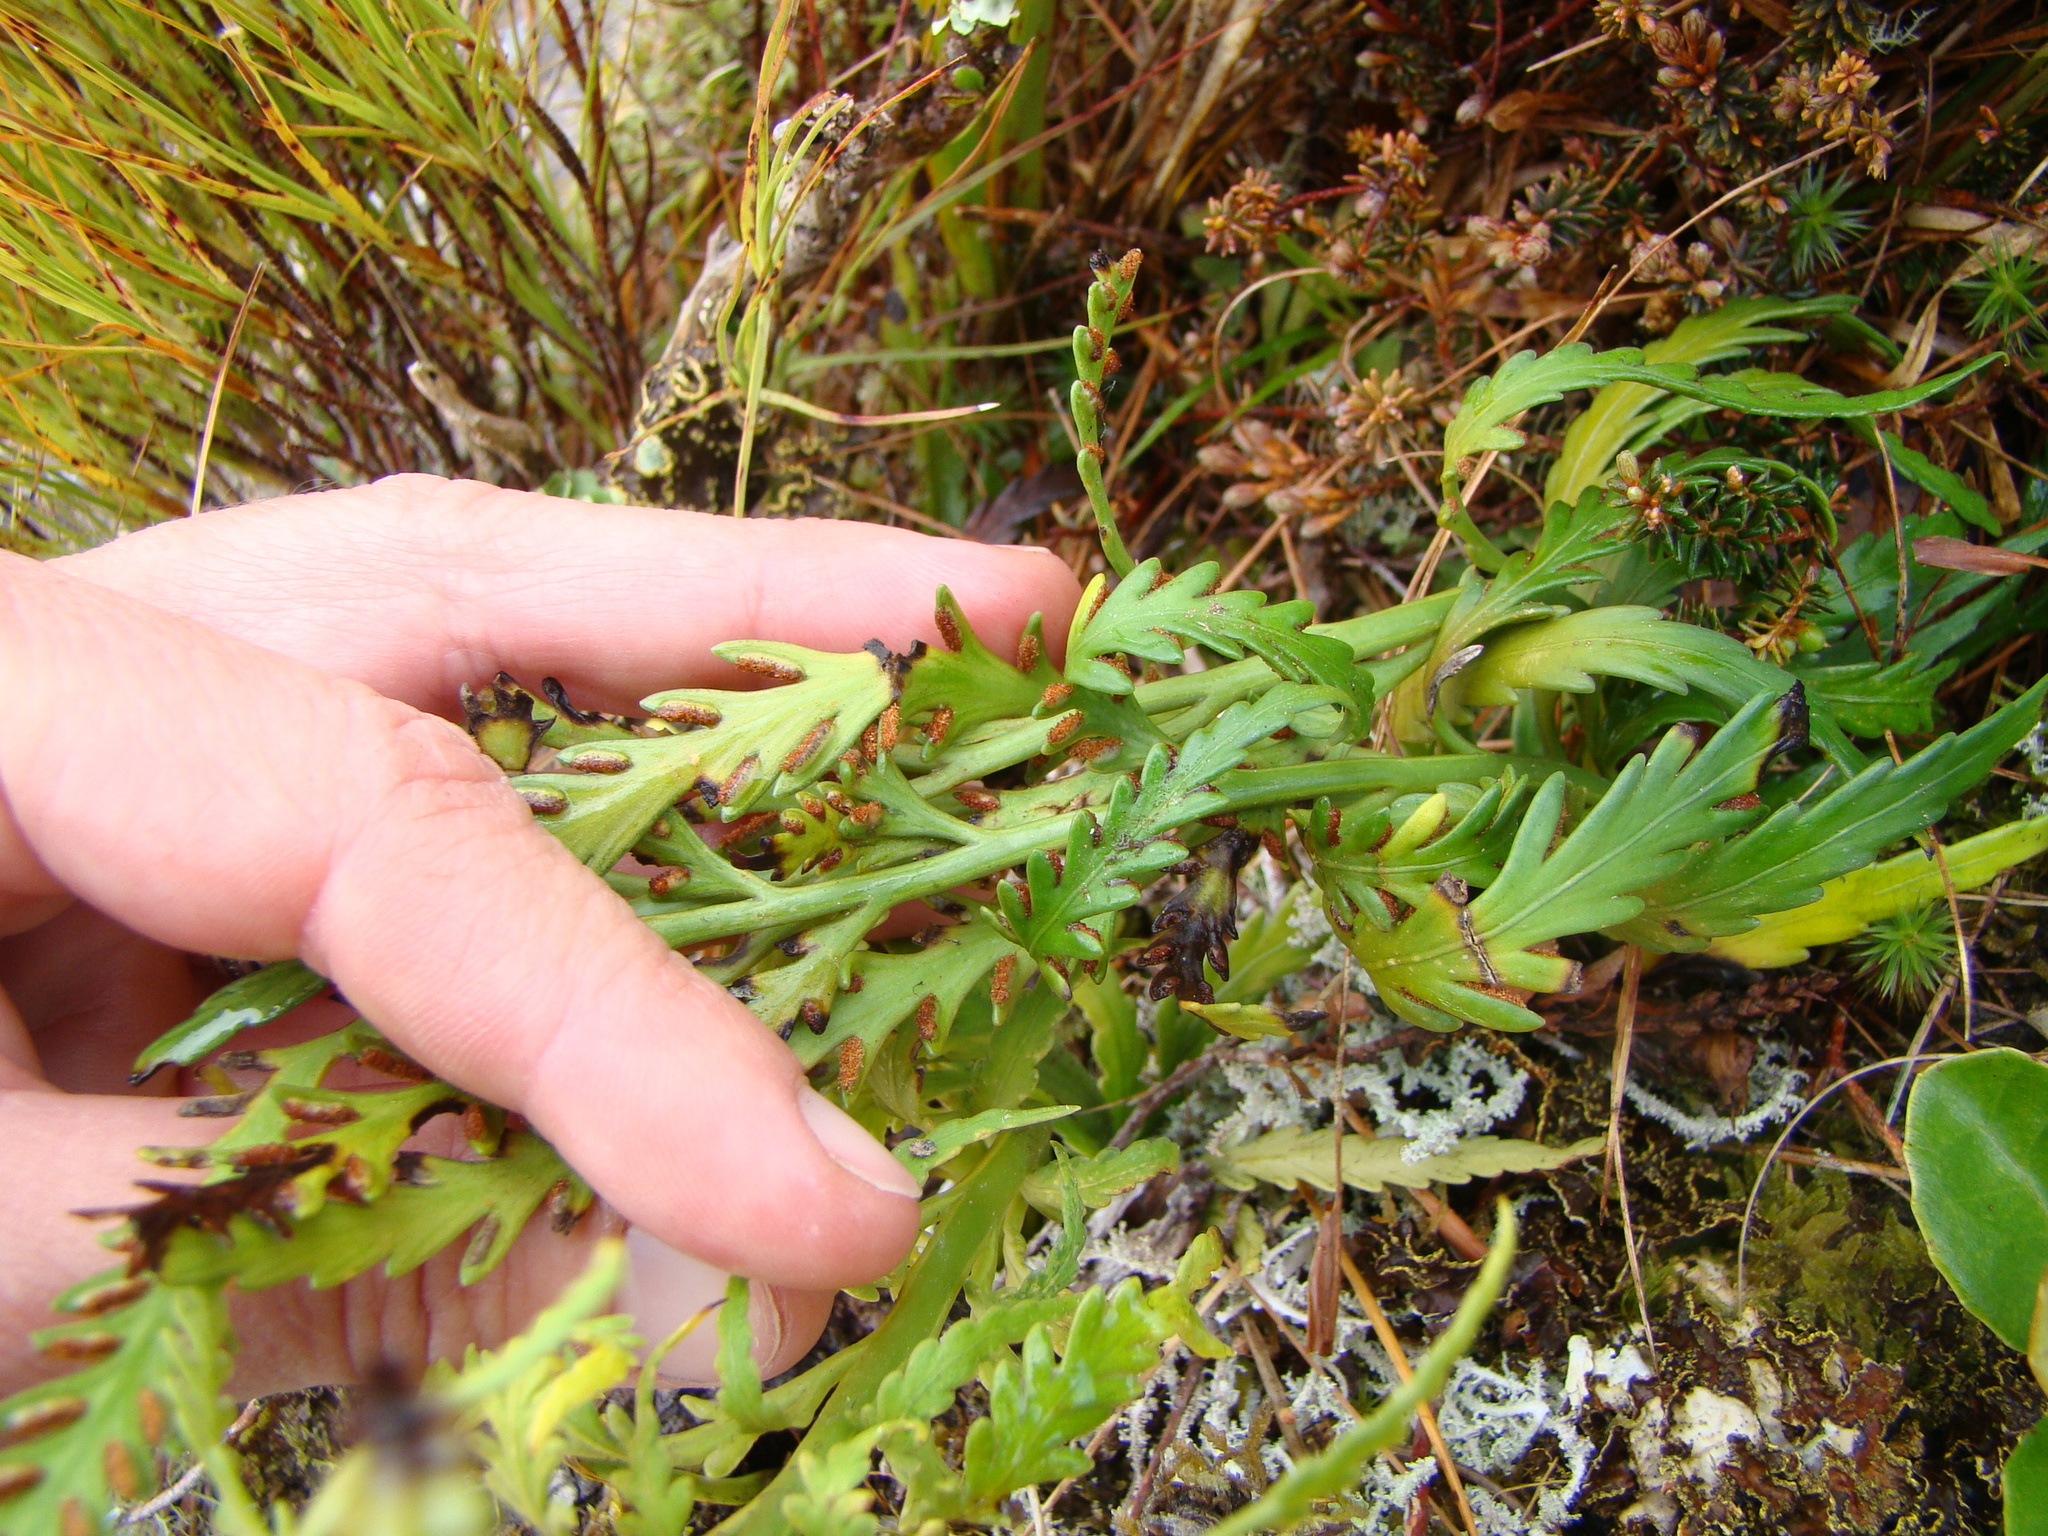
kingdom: Plantae
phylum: Tracheophyta
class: Polypodiopsida
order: Polypodiales
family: Aspleniaceae
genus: Asplenium
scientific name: Asplenium flaccidum
